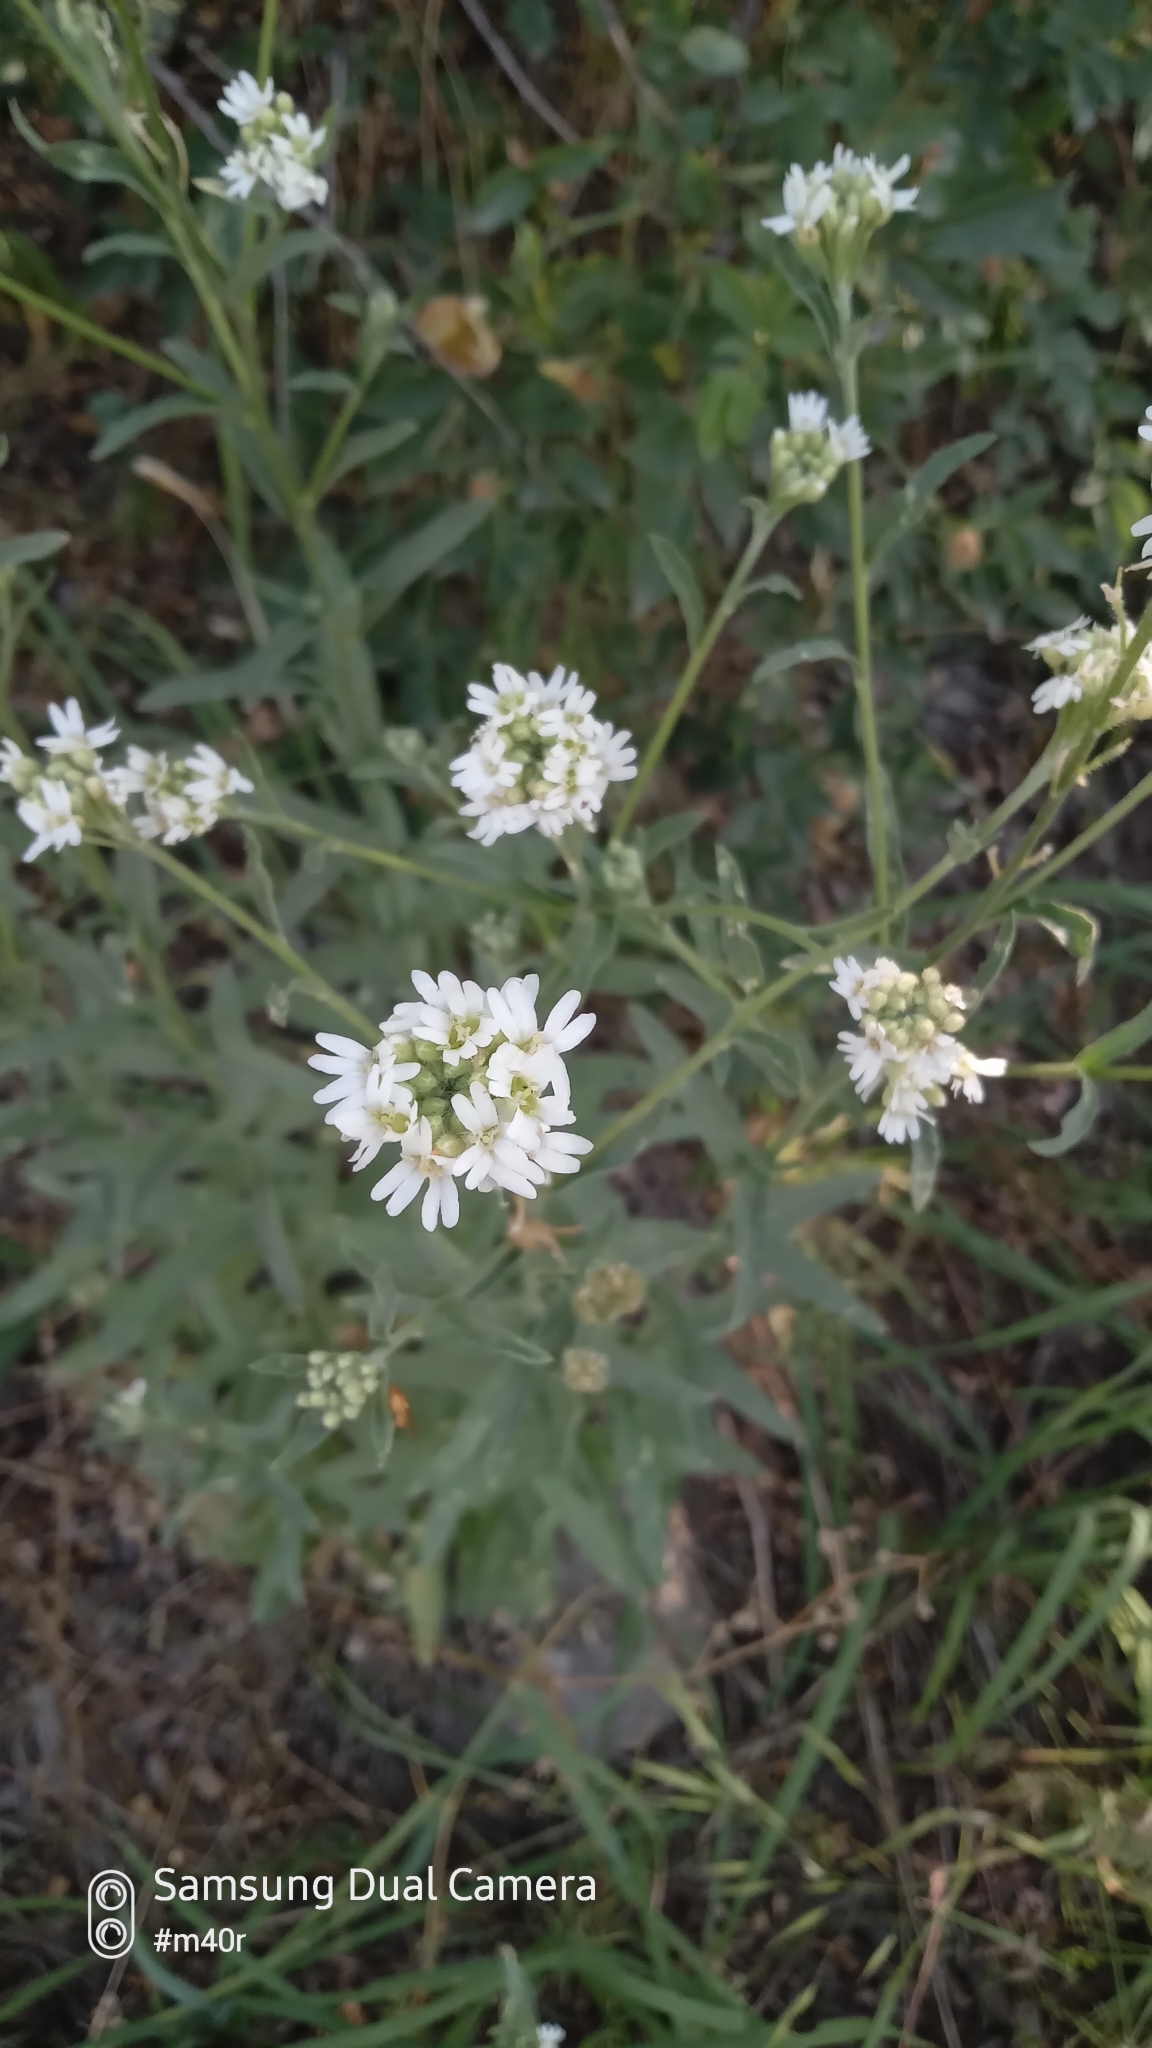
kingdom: Plantae
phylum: Tracheophyta
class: Magnoliopsida
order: Brassicales
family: Brassicaceae
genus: Berteroa
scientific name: Berteroa incana
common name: Hoary alison
